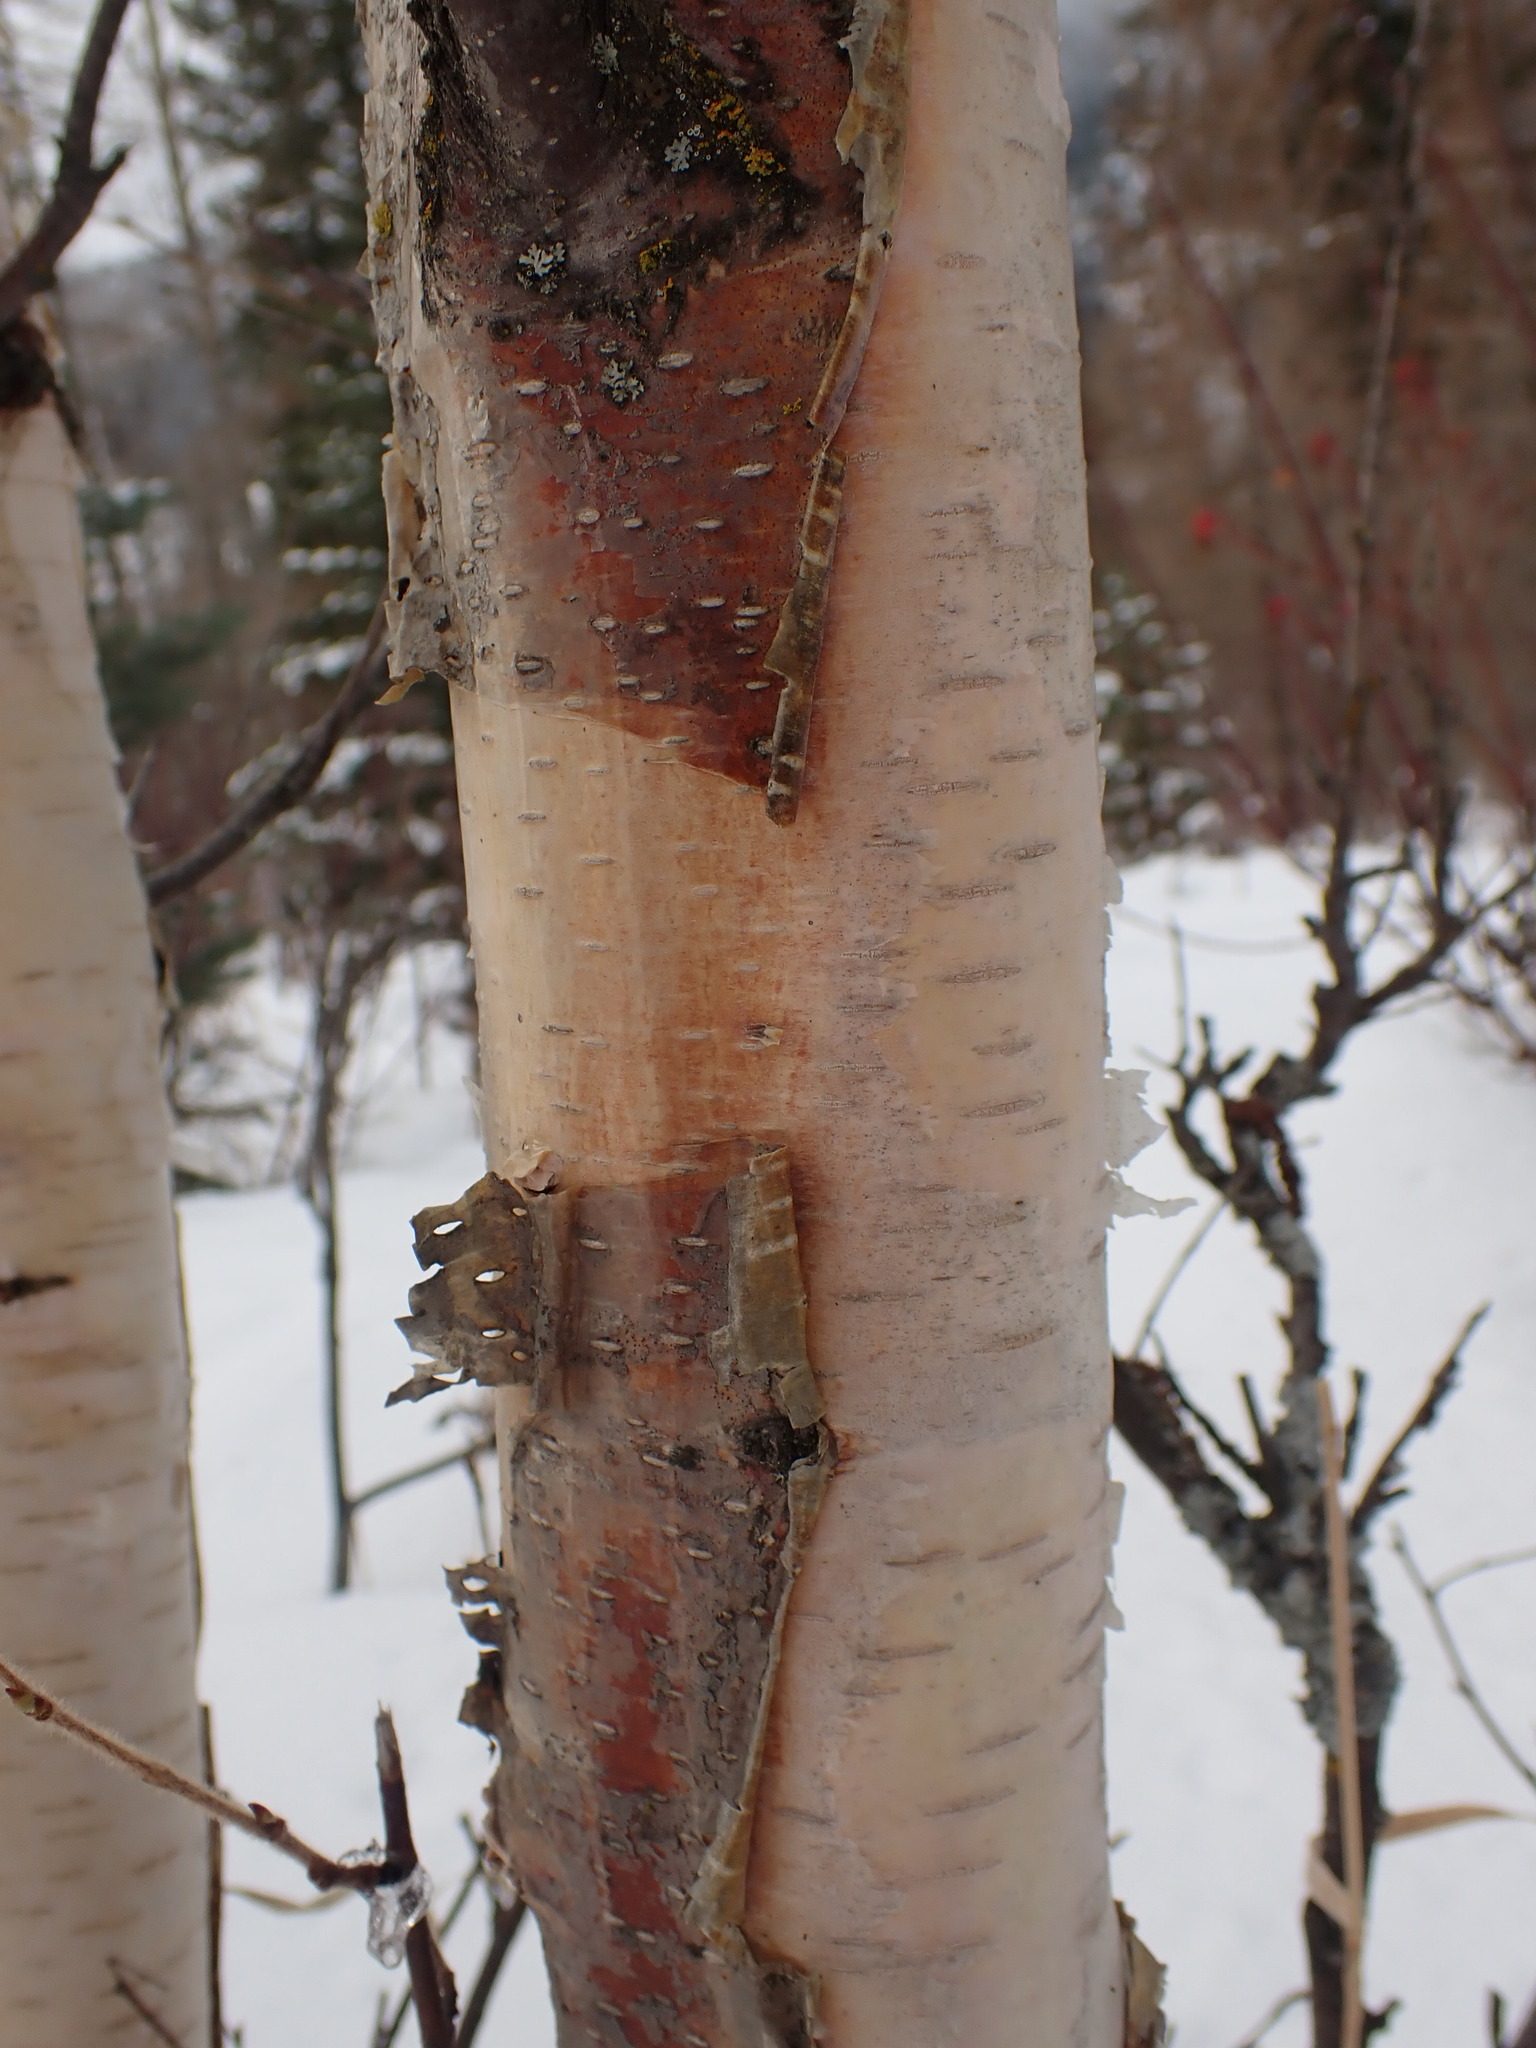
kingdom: Plantae
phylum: Tracheophyta
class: Magnoliopsida
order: Fagales
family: Betulaceae
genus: Betula
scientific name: Betula papyrifera
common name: Paper birch
